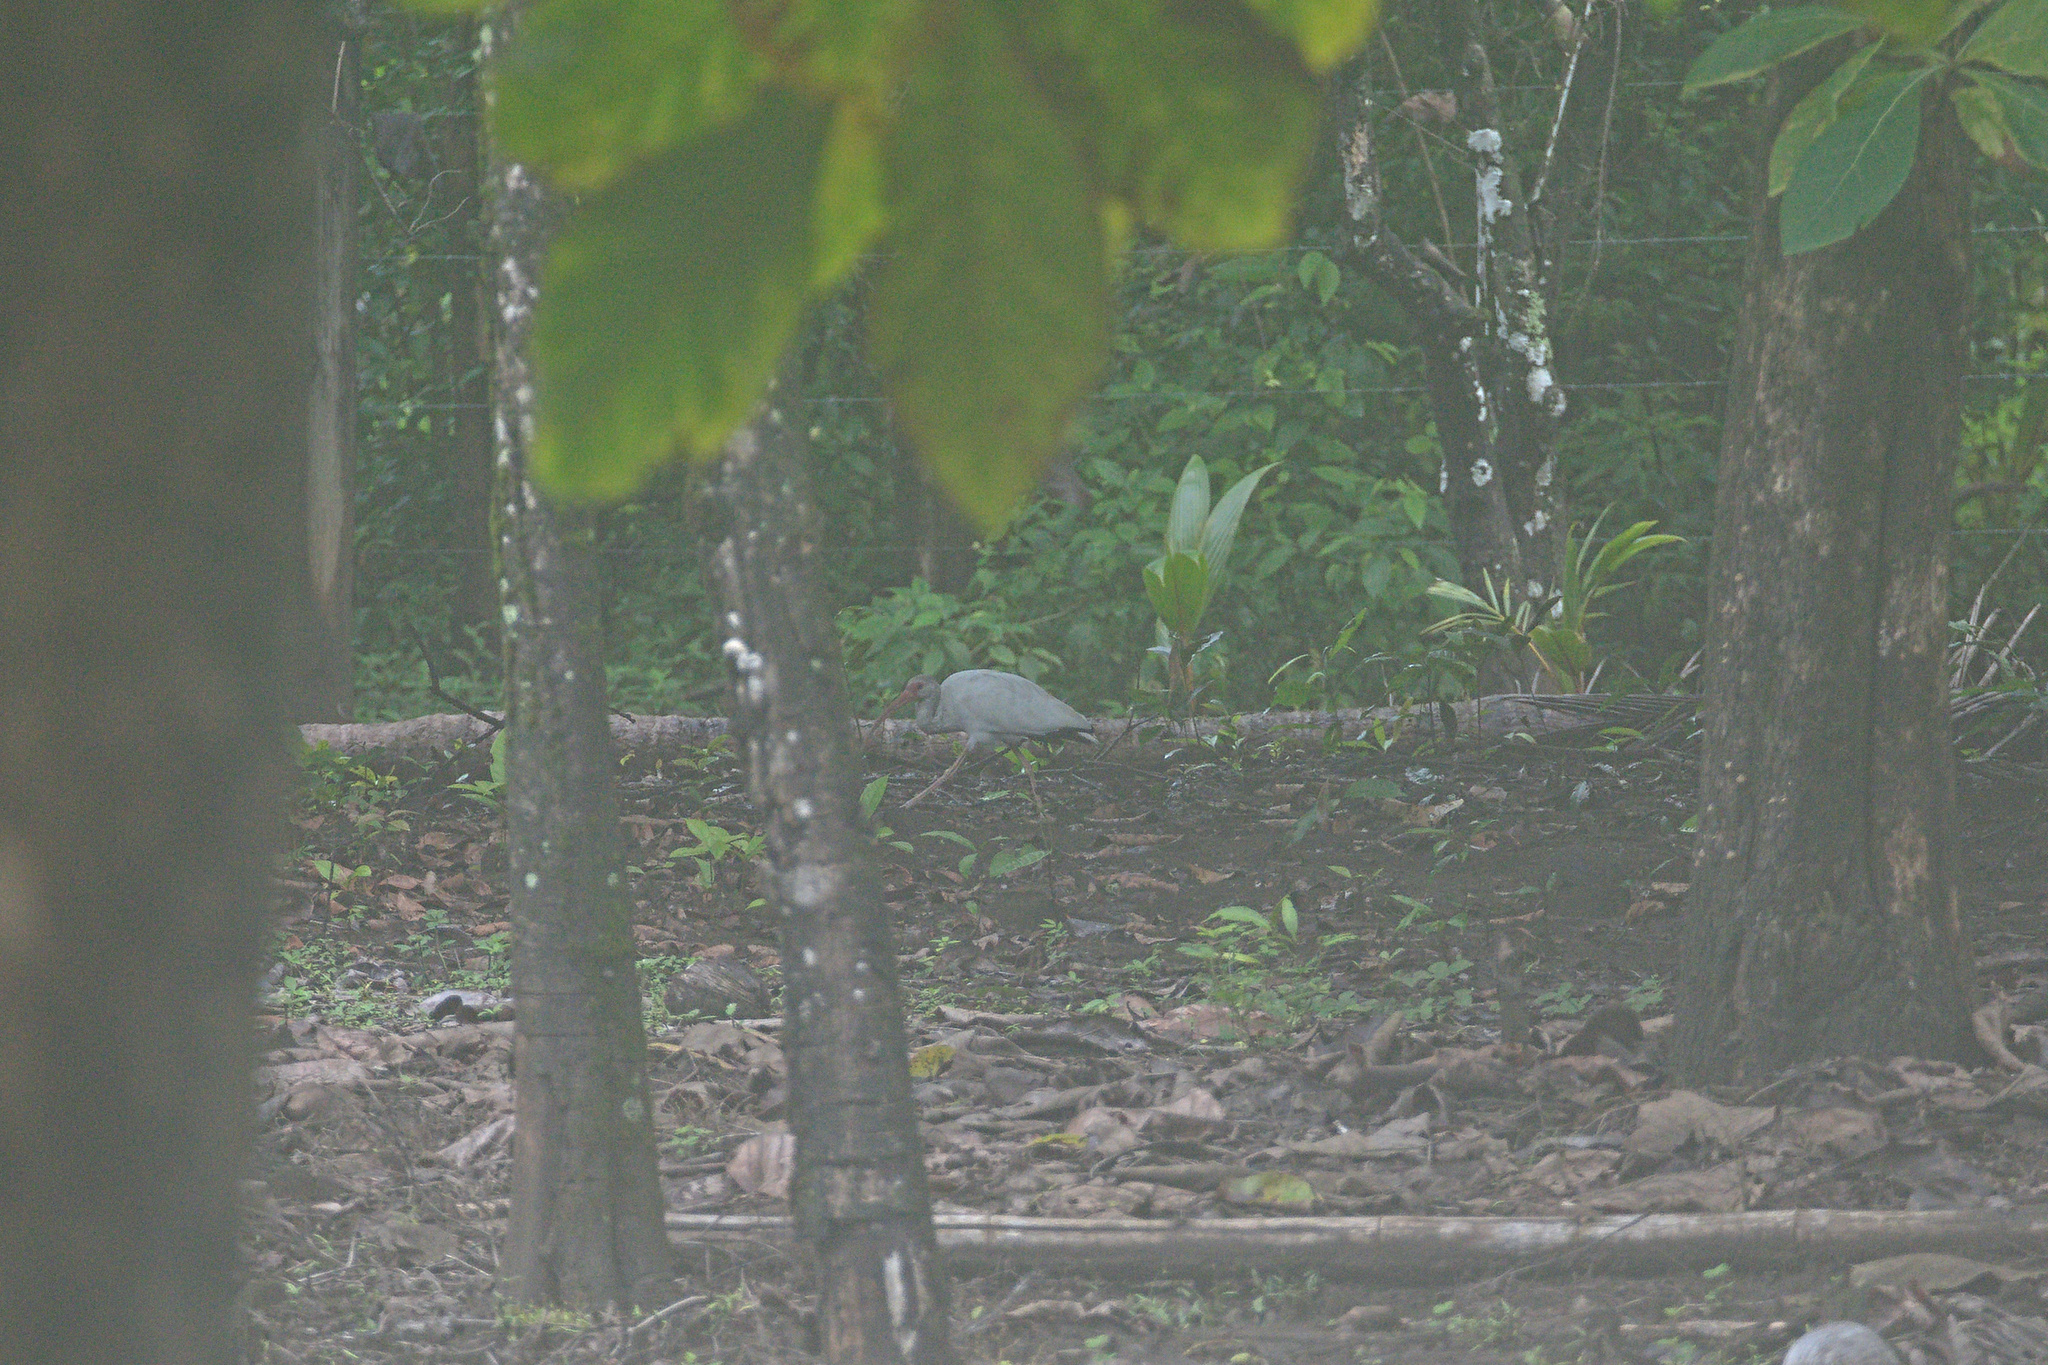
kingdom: Animalia
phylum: Chordata
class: Aves
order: Pelecaniformes
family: Threskiornithidae
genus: Eudocimus
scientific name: Eudocimus albus
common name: White ibis
